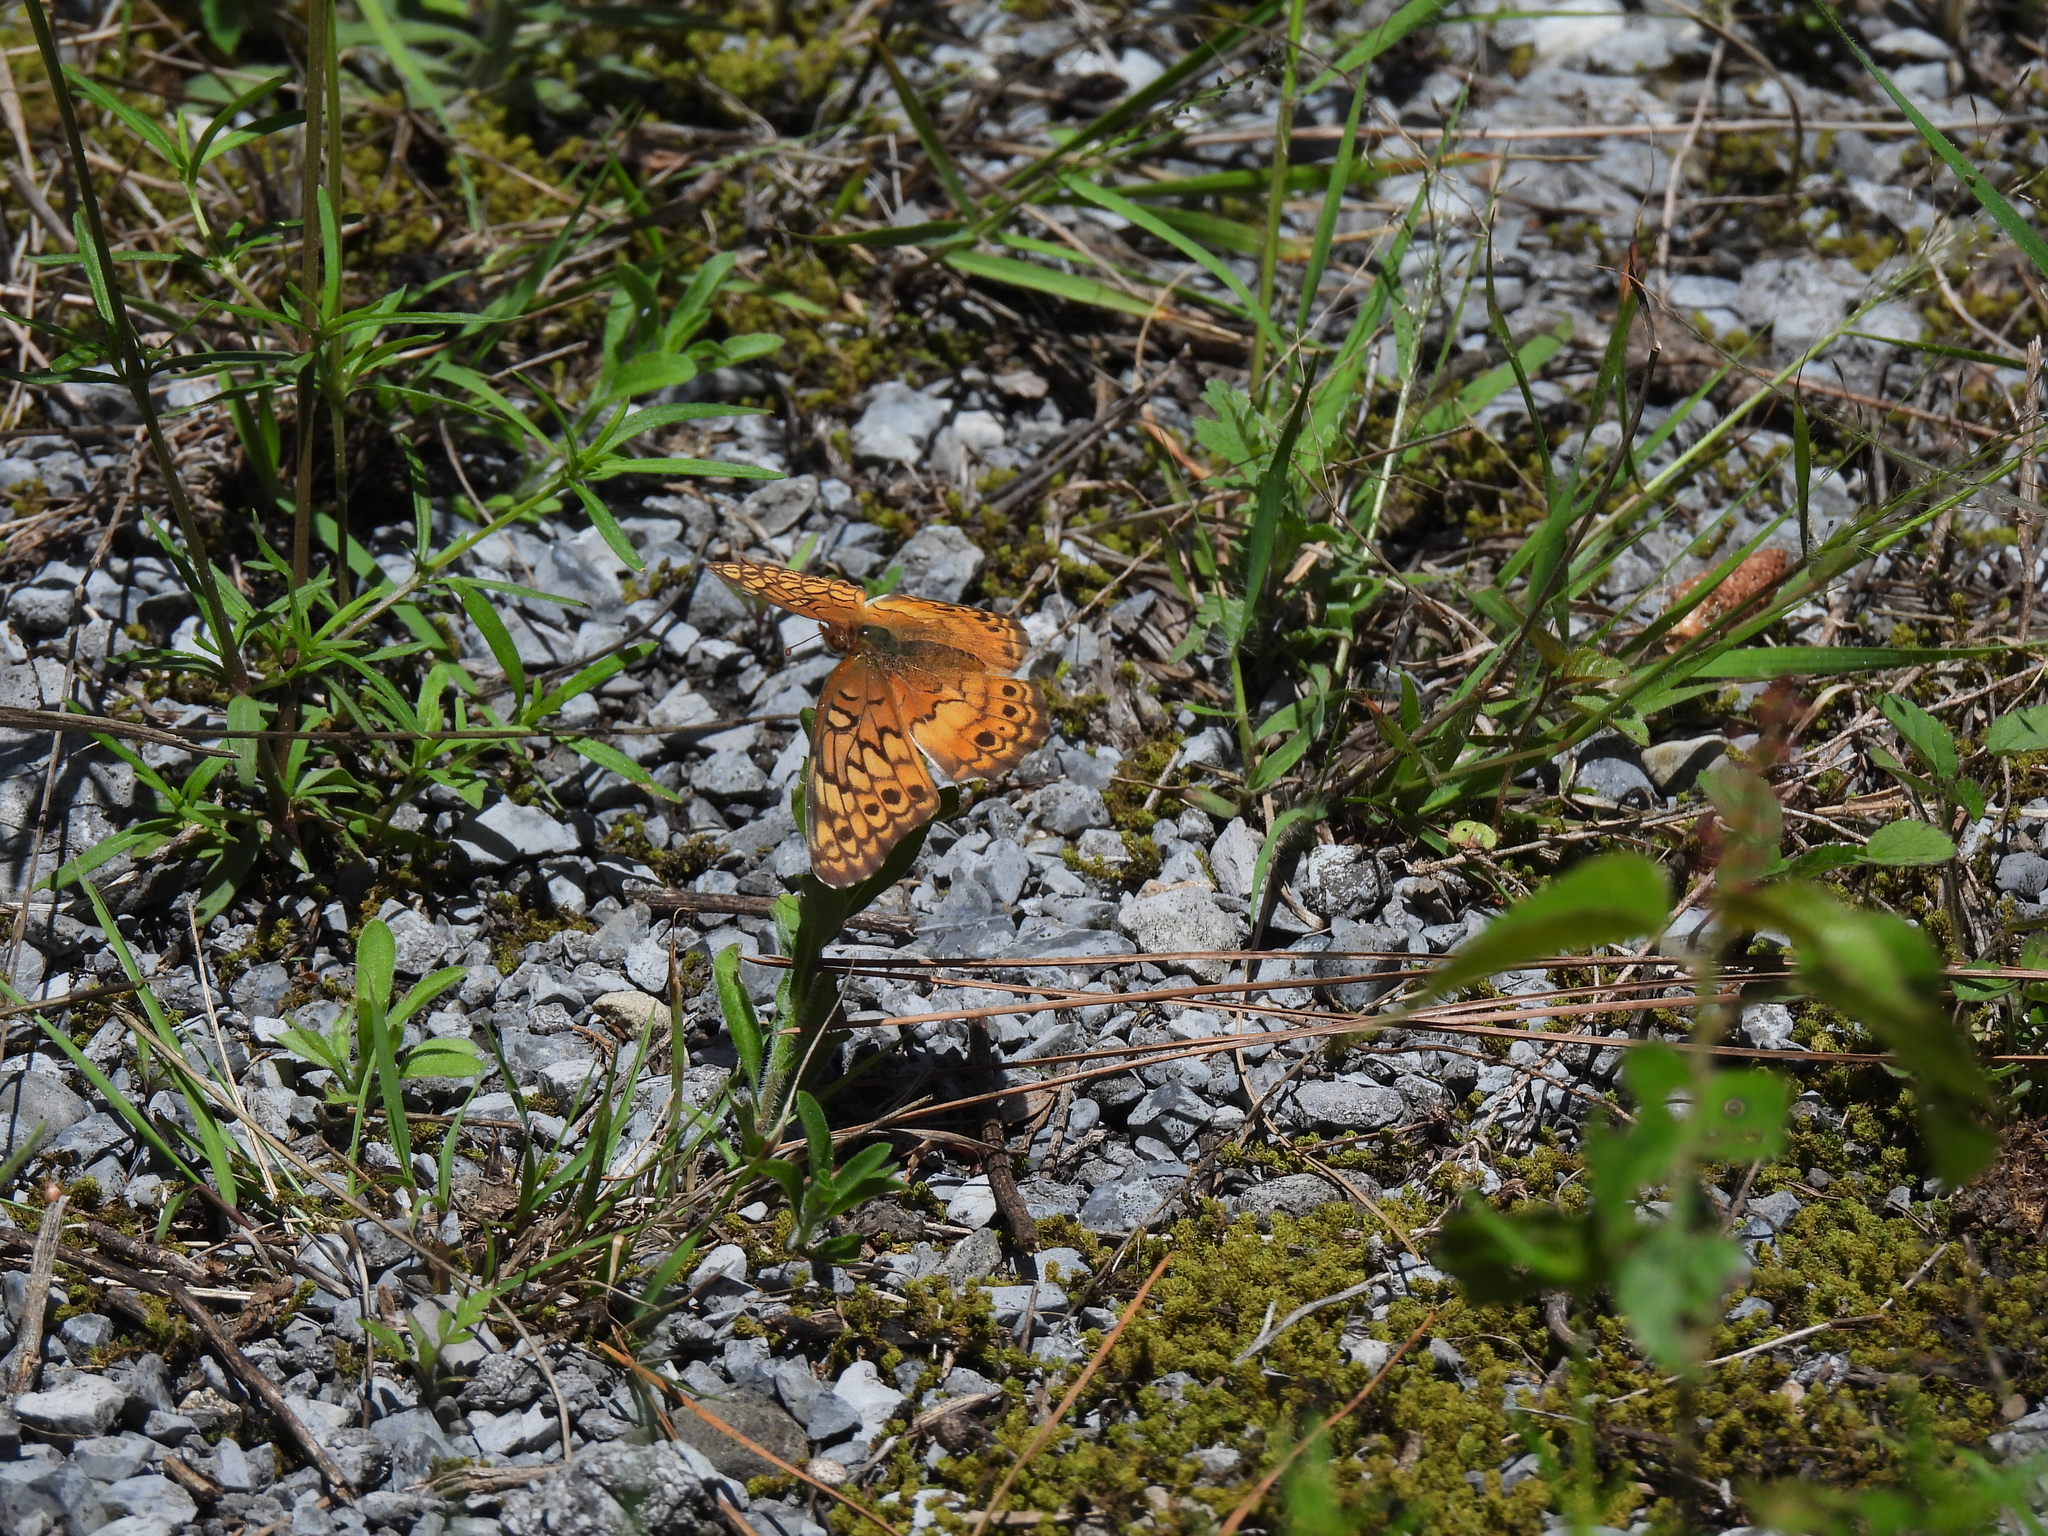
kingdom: Animalia
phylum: Arthropoda
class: Insecta
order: Lepidoptera
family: Nymphalidae
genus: Euptoieta
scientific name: Euptoieta claudia
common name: Variegated fritillary
